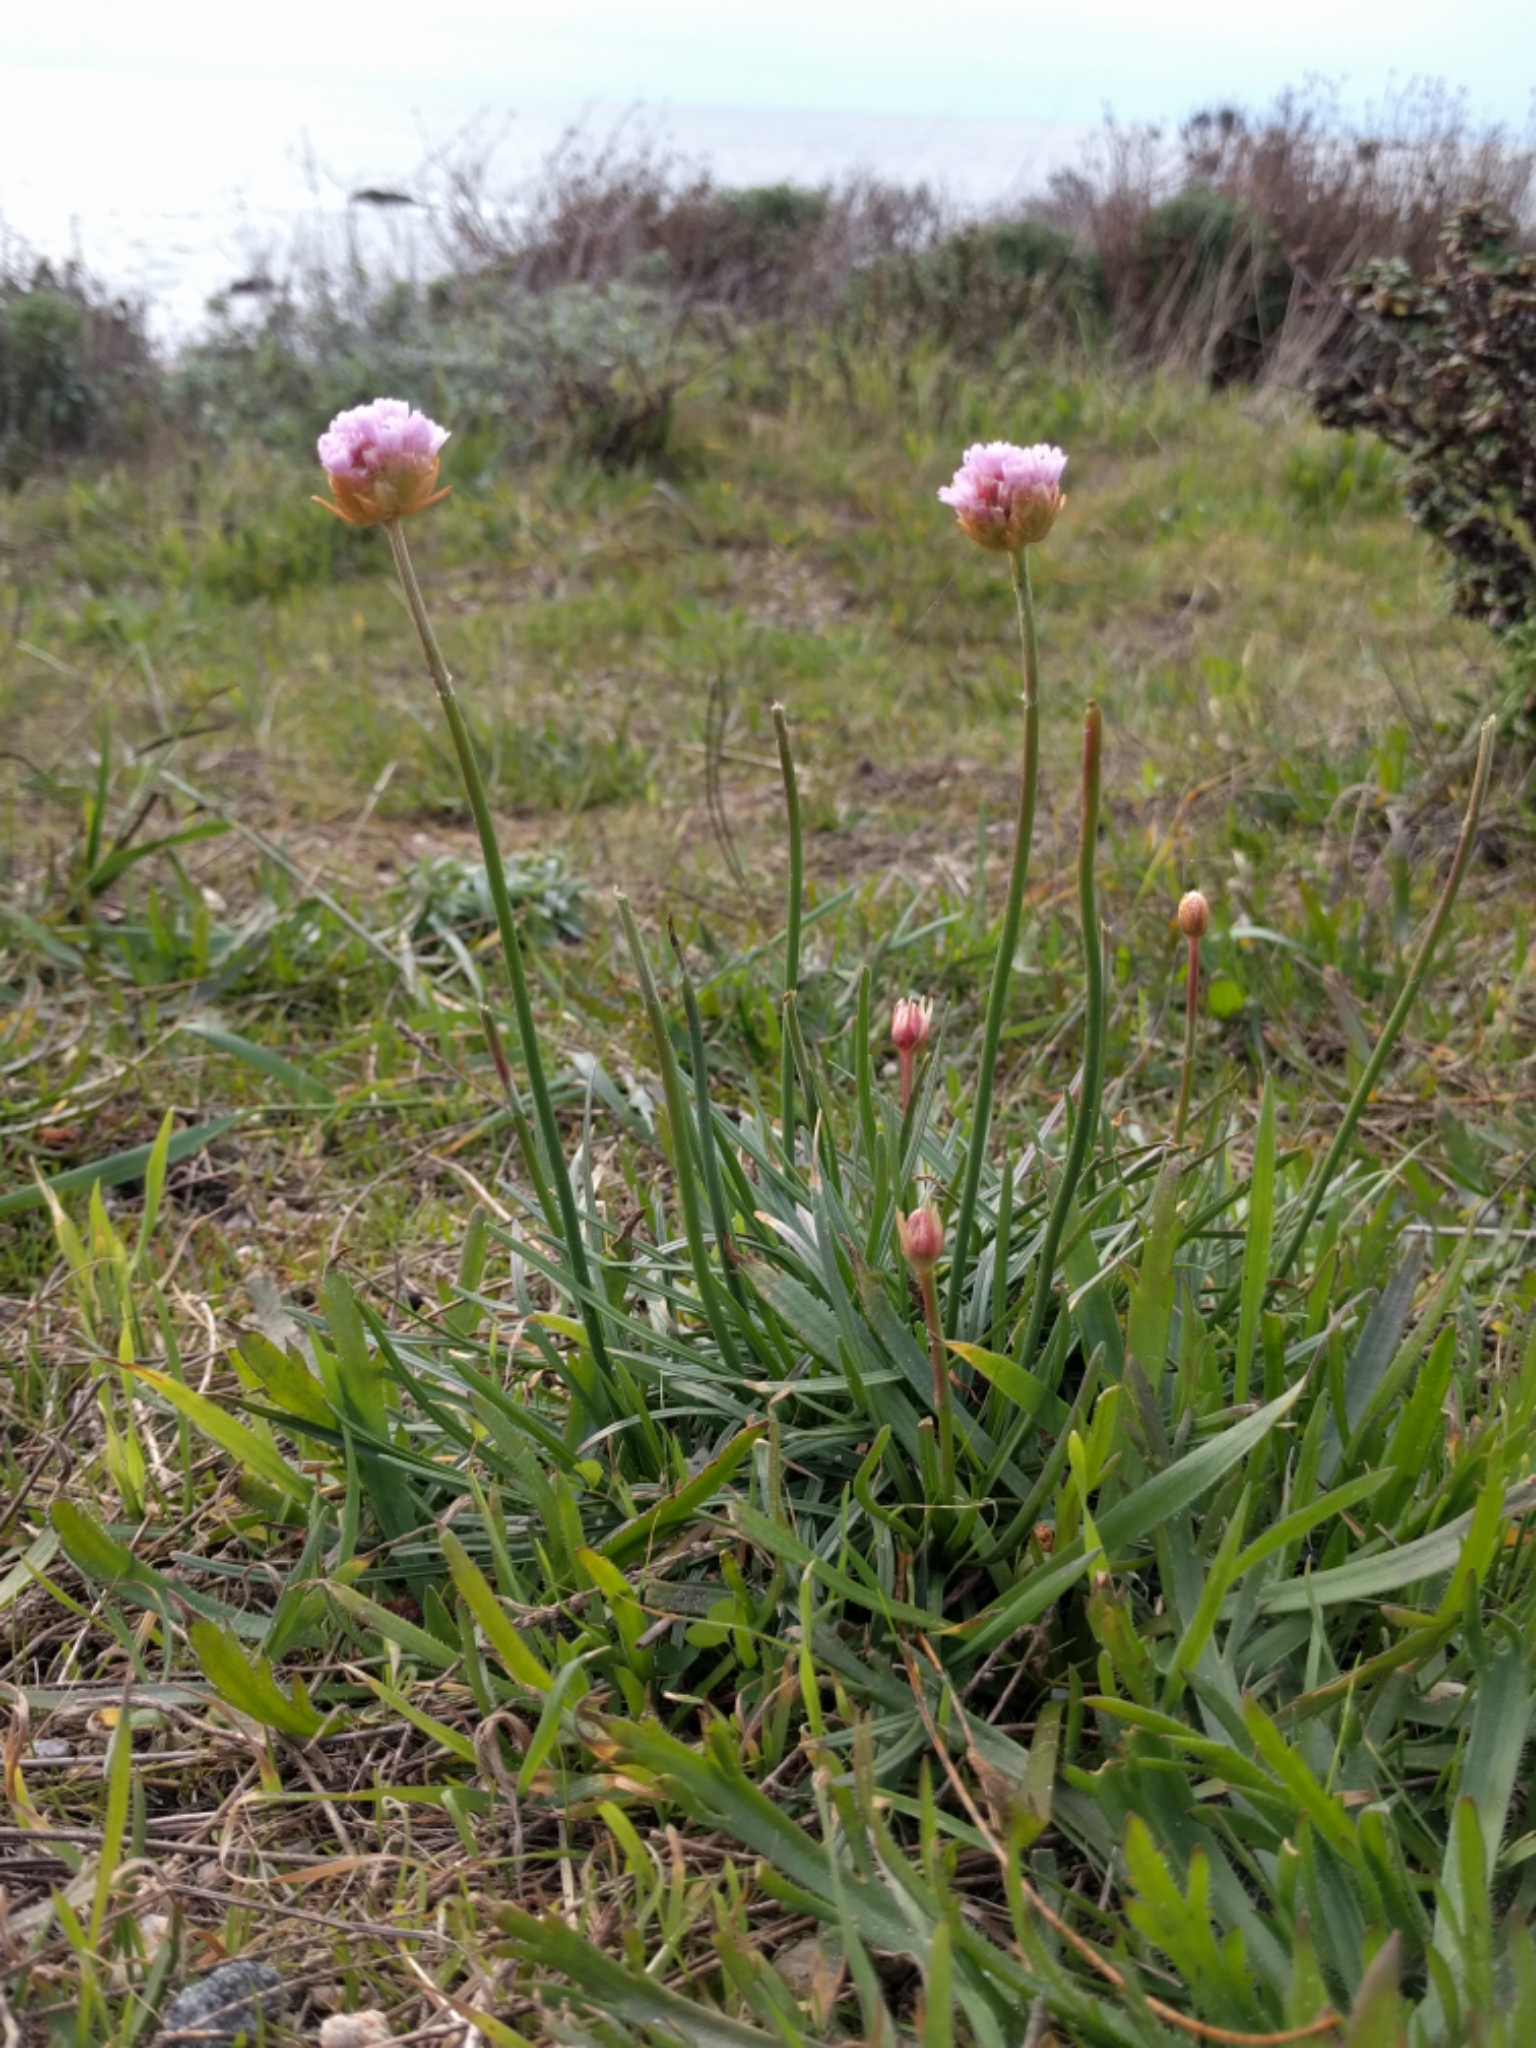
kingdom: Plantae
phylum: Tracheophyta
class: Magnoliopsida
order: Caryophyllales
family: Plumbaginaceae
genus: Armeria
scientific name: Armeria maritima
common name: Thrift
